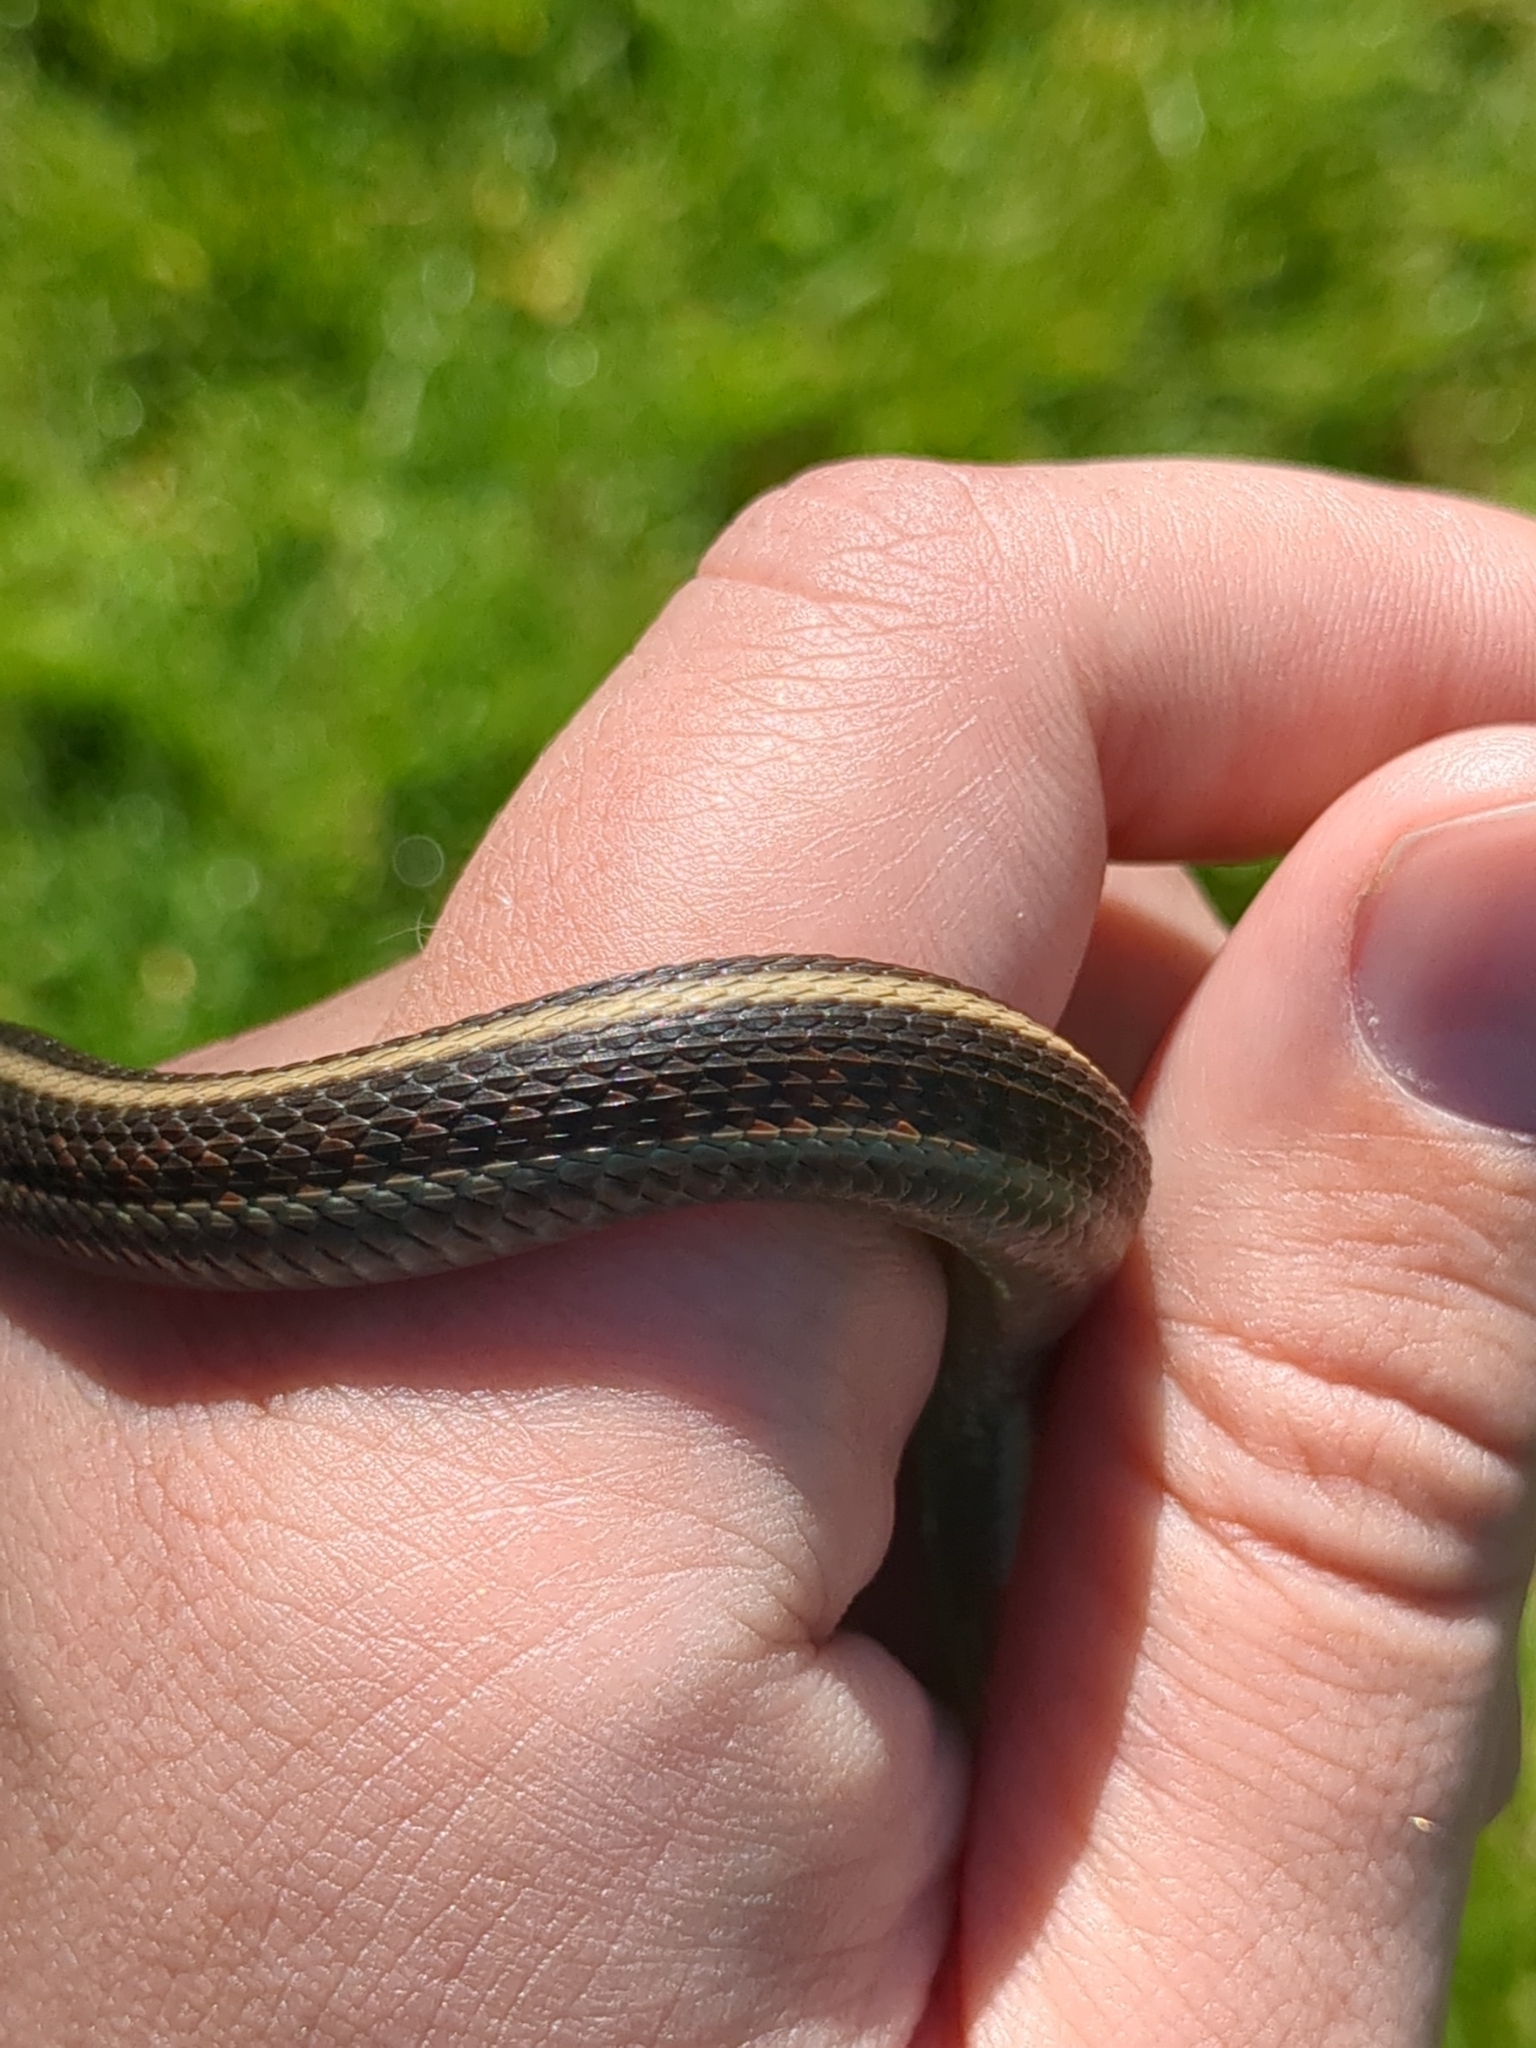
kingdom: Animalia
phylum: Chordata
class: Squamata
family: Colubridae
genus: Thamnophis
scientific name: Thamnophis elegans
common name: Western terrestrial garter snake
